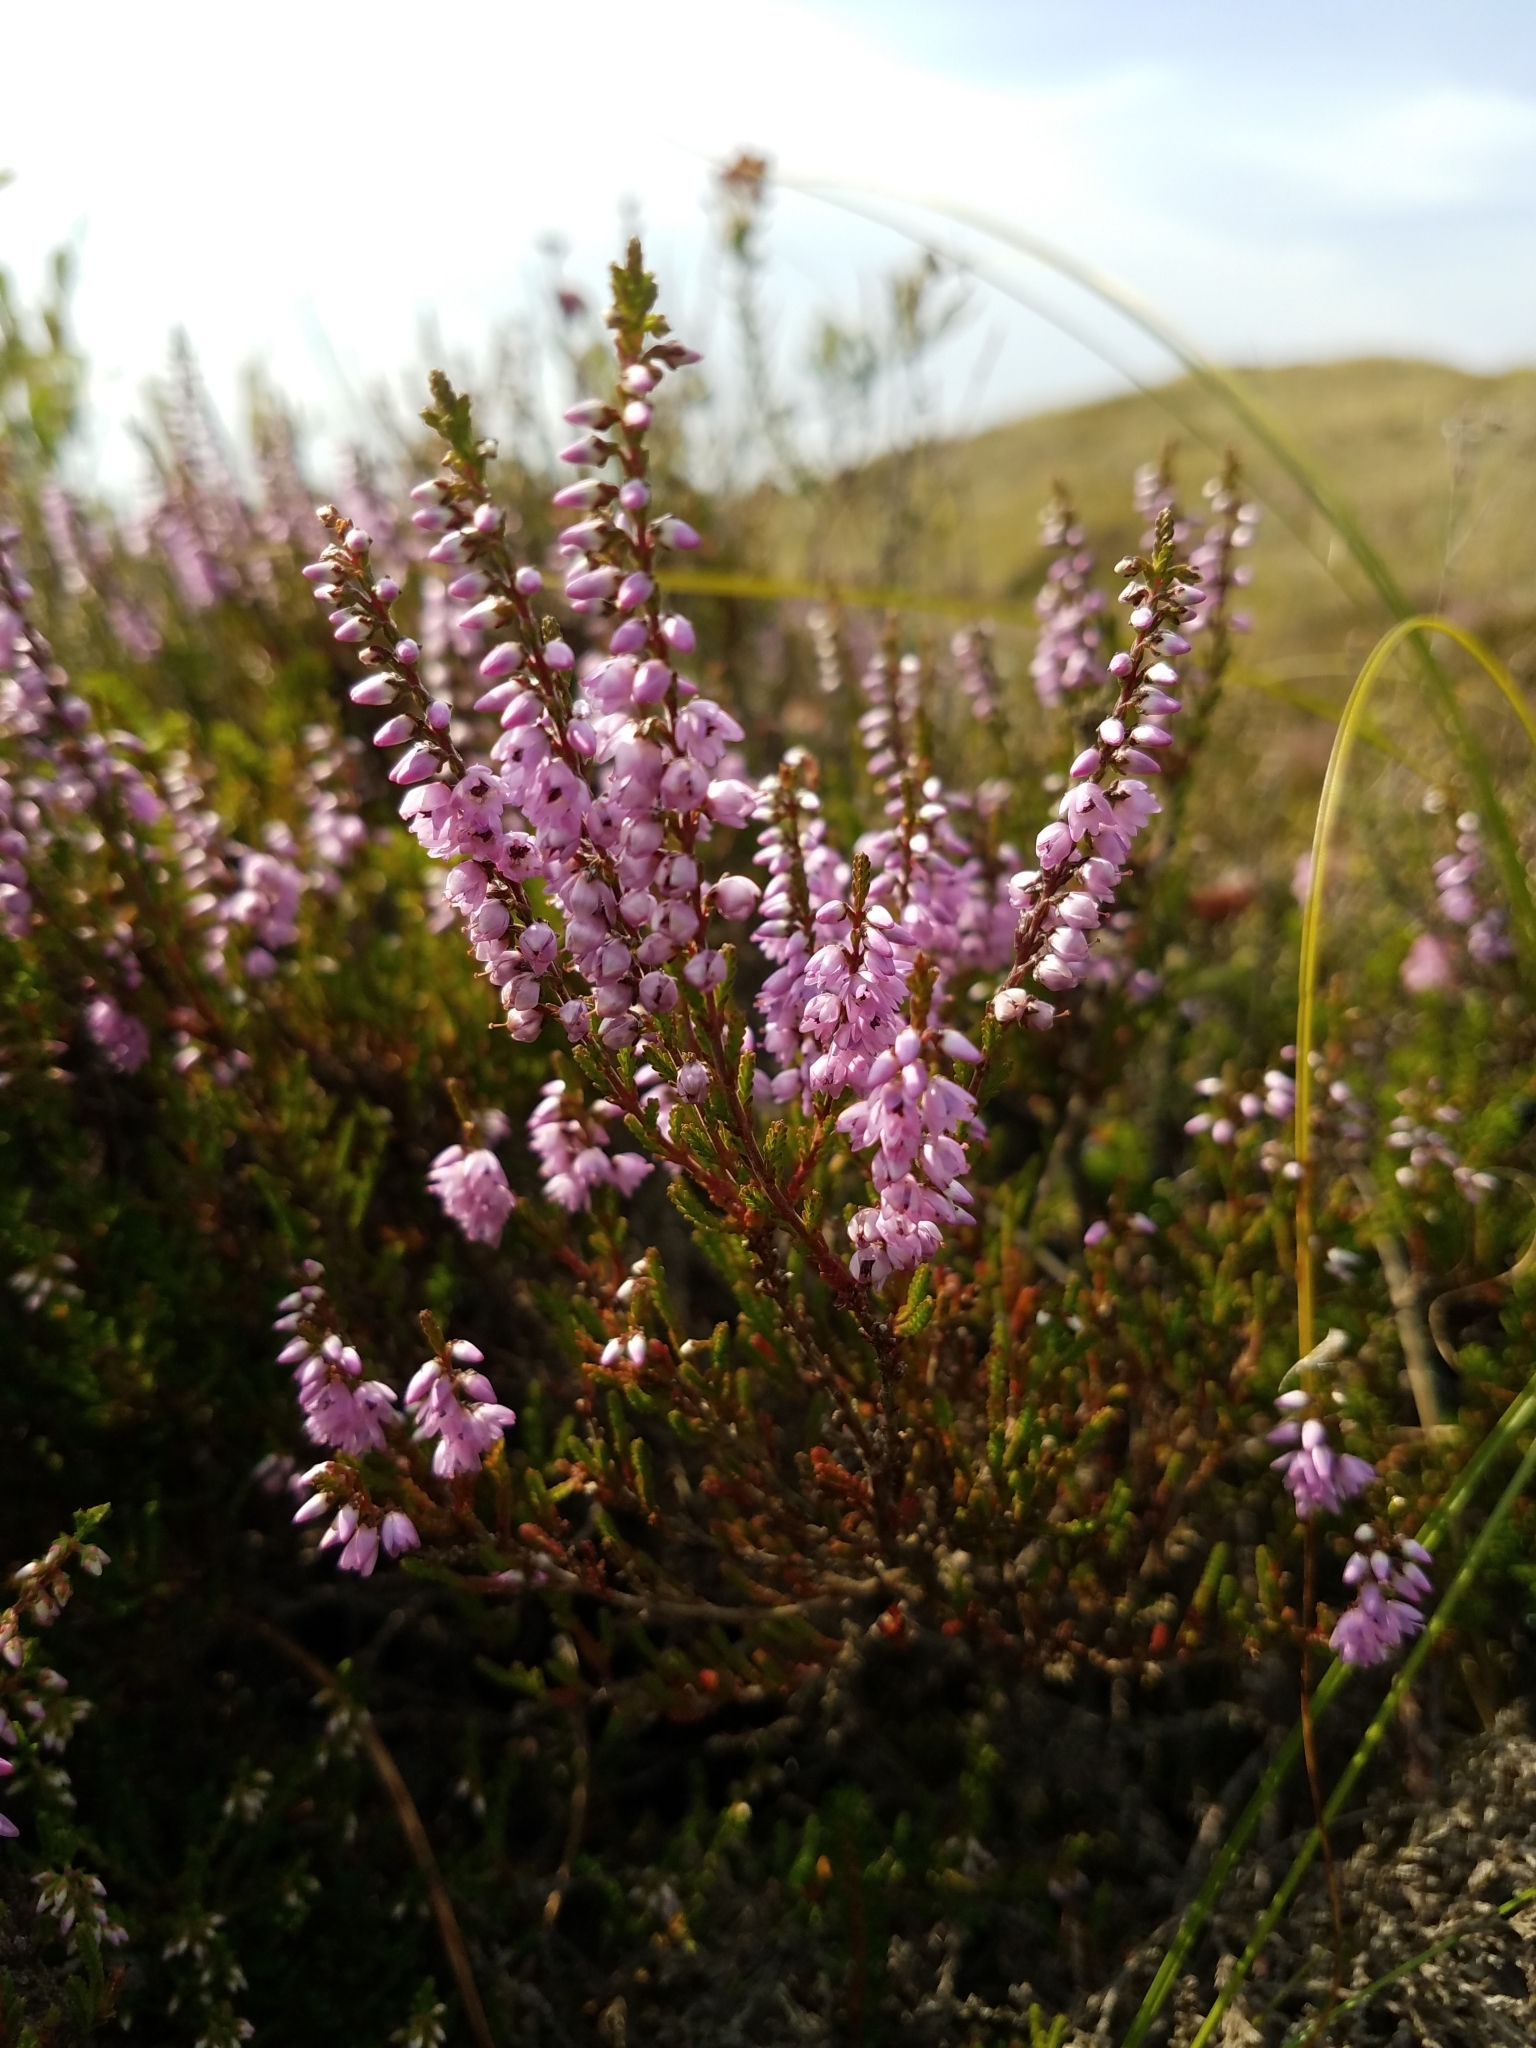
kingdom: Plantae
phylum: Tracheophyta
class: Magnoliopsida
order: Ericales
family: Ericaceae
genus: Calluna
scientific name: Calluna vulgaris
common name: Heather
